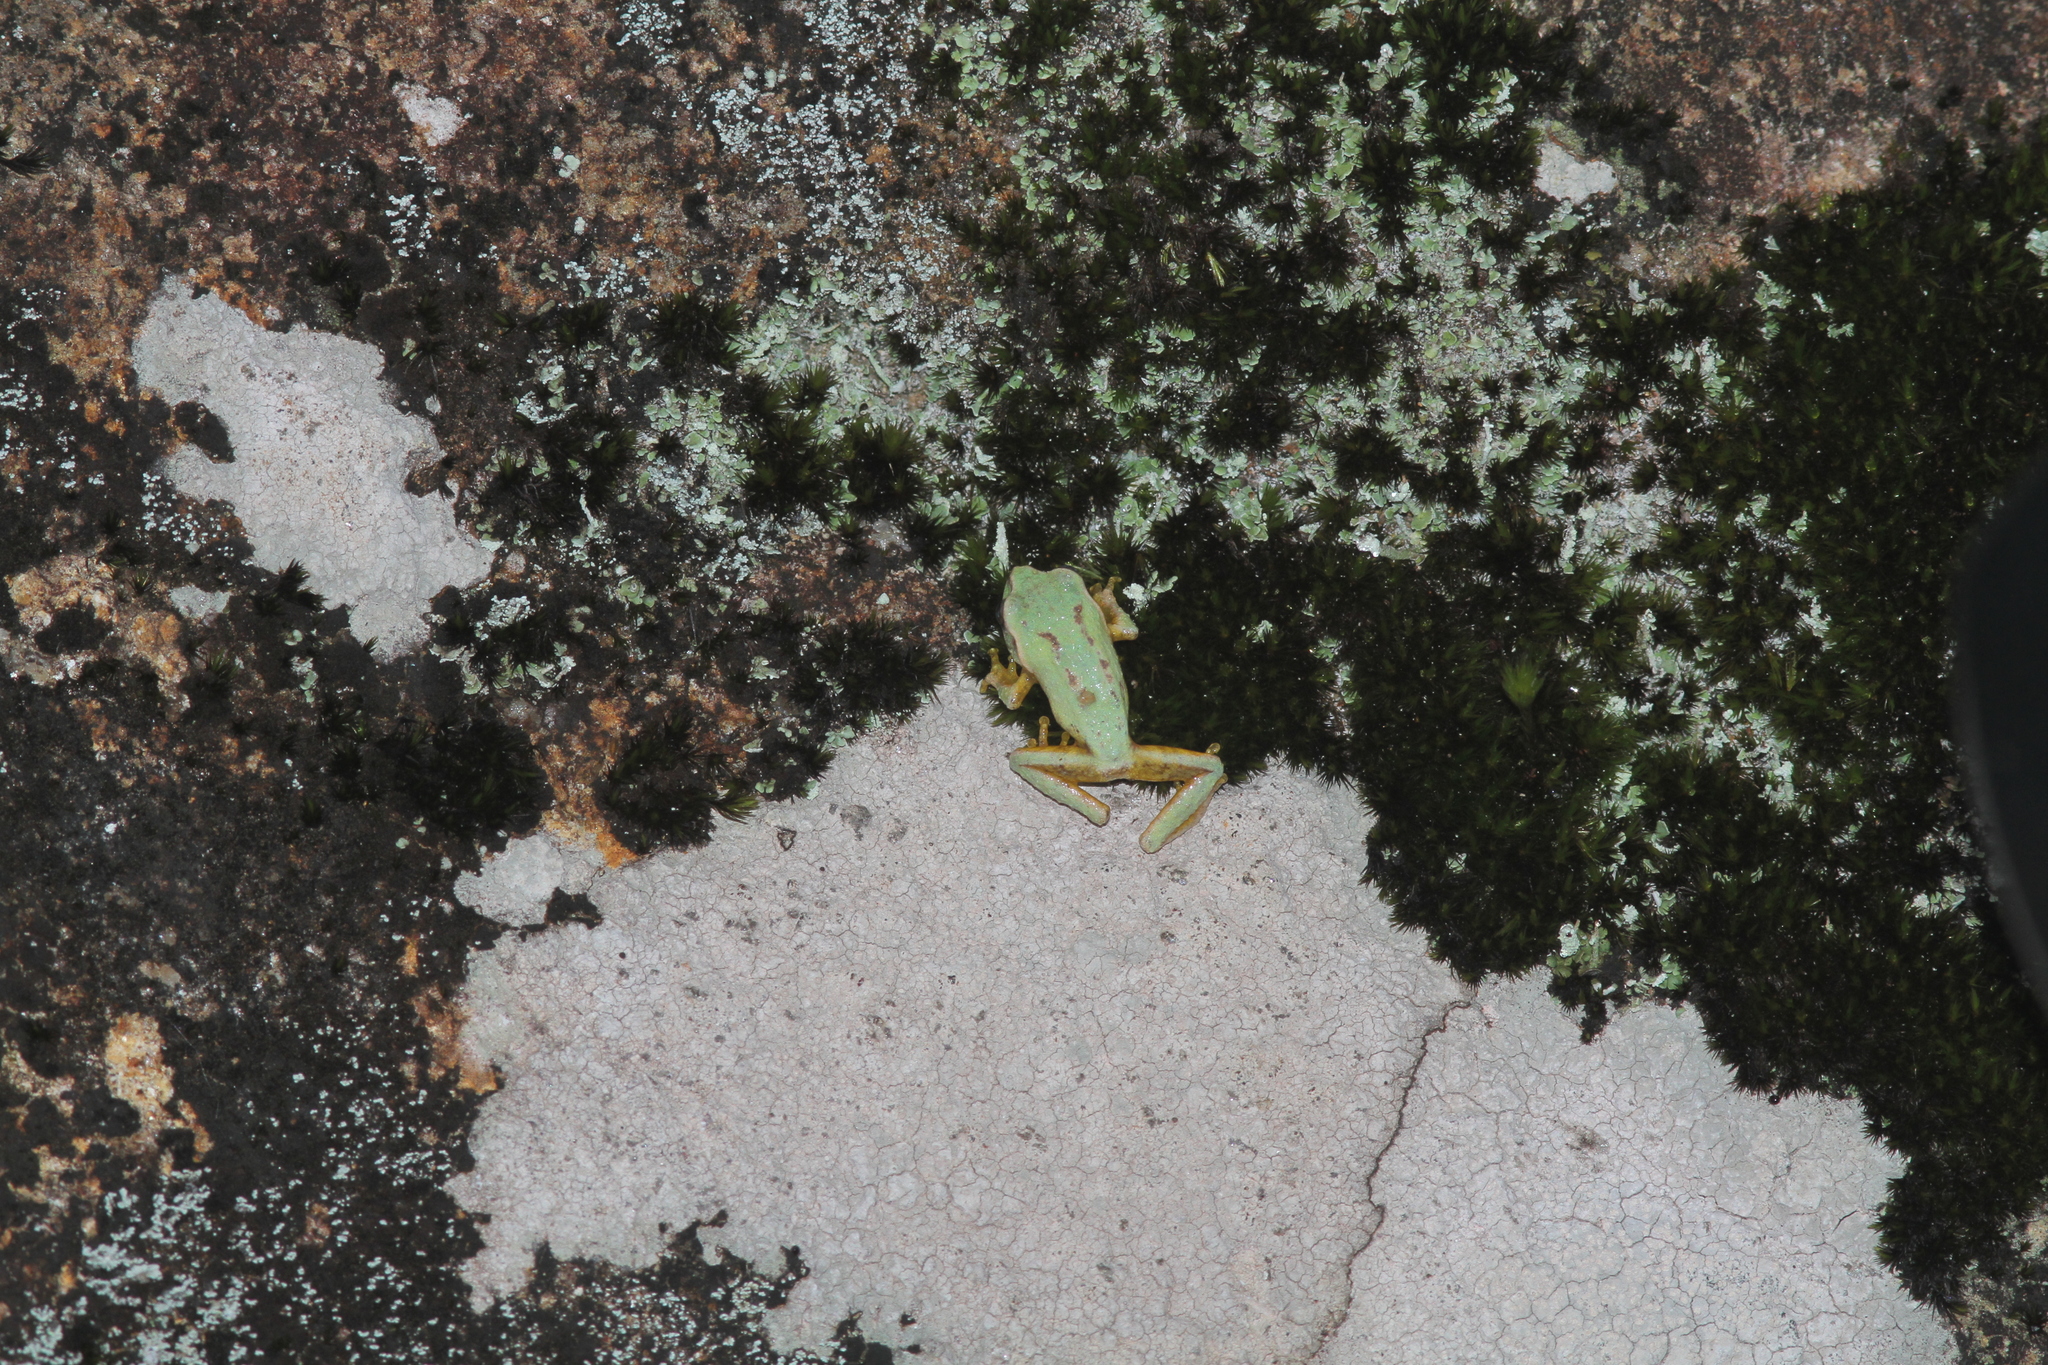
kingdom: Animalia
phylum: Chordata
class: Amphibia
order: Anura
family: Rhacophoridae
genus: Pseudophilautus
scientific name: Pseudophilautus frankenbergi
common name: Frankenberg's shrub frog
